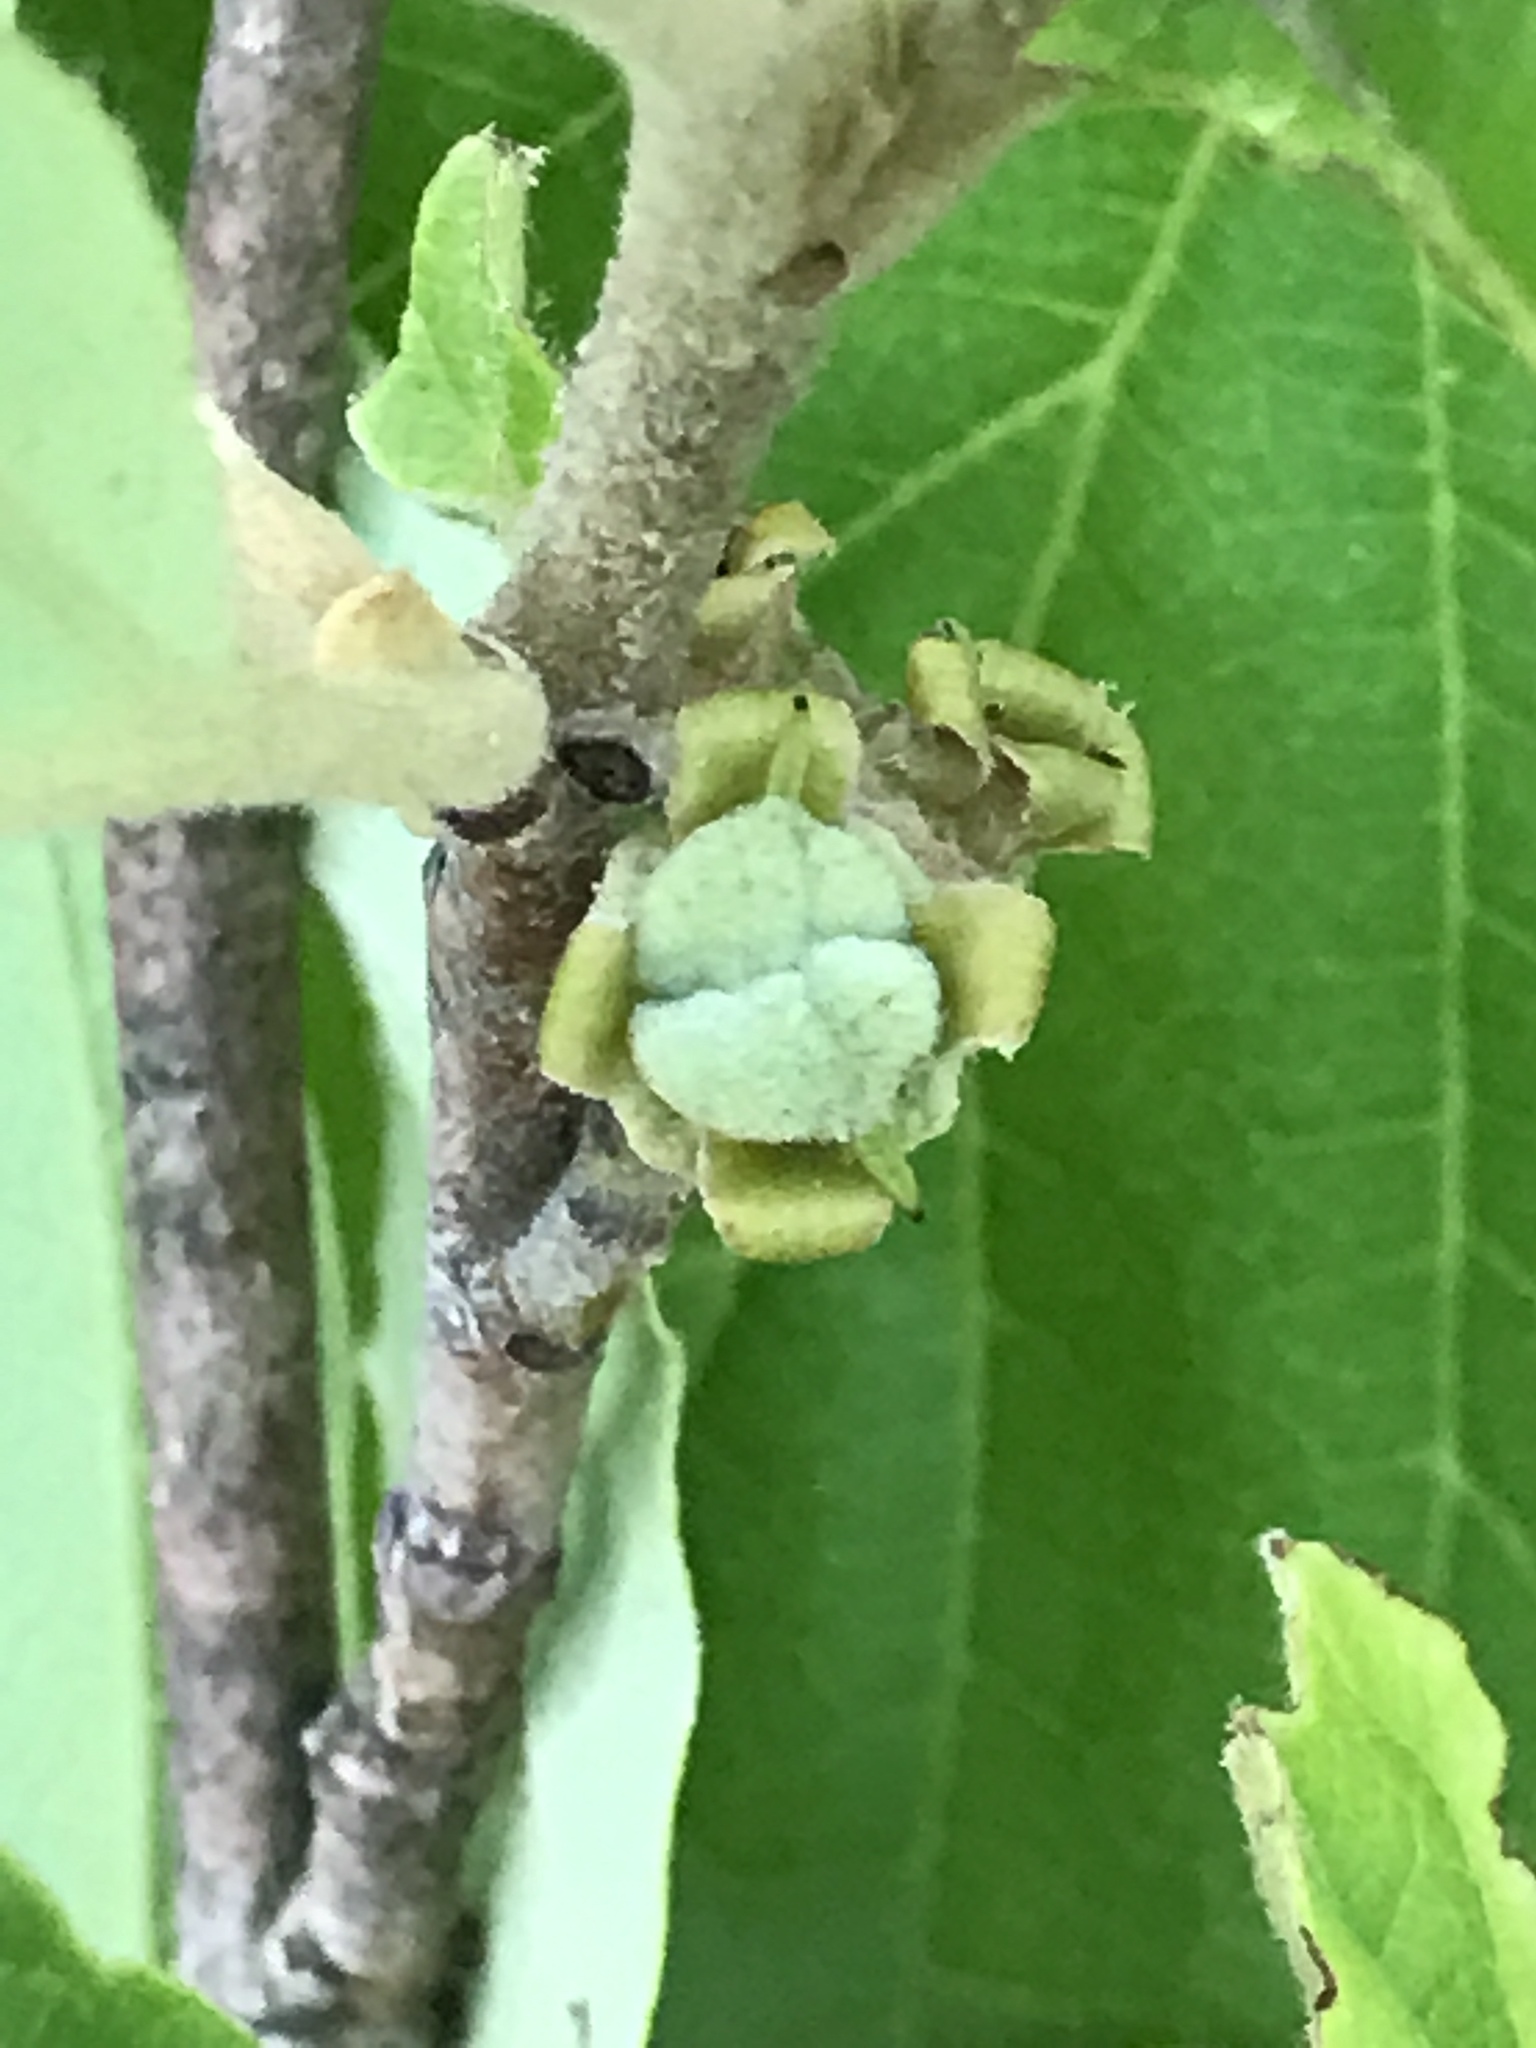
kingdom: Plantae
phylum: Tracheophyta
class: Magnoliopsida
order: Saxifragales
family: Hamamelidaceae
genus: Hamamelis
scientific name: Hamamelis virginiana
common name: Witch-hazel
